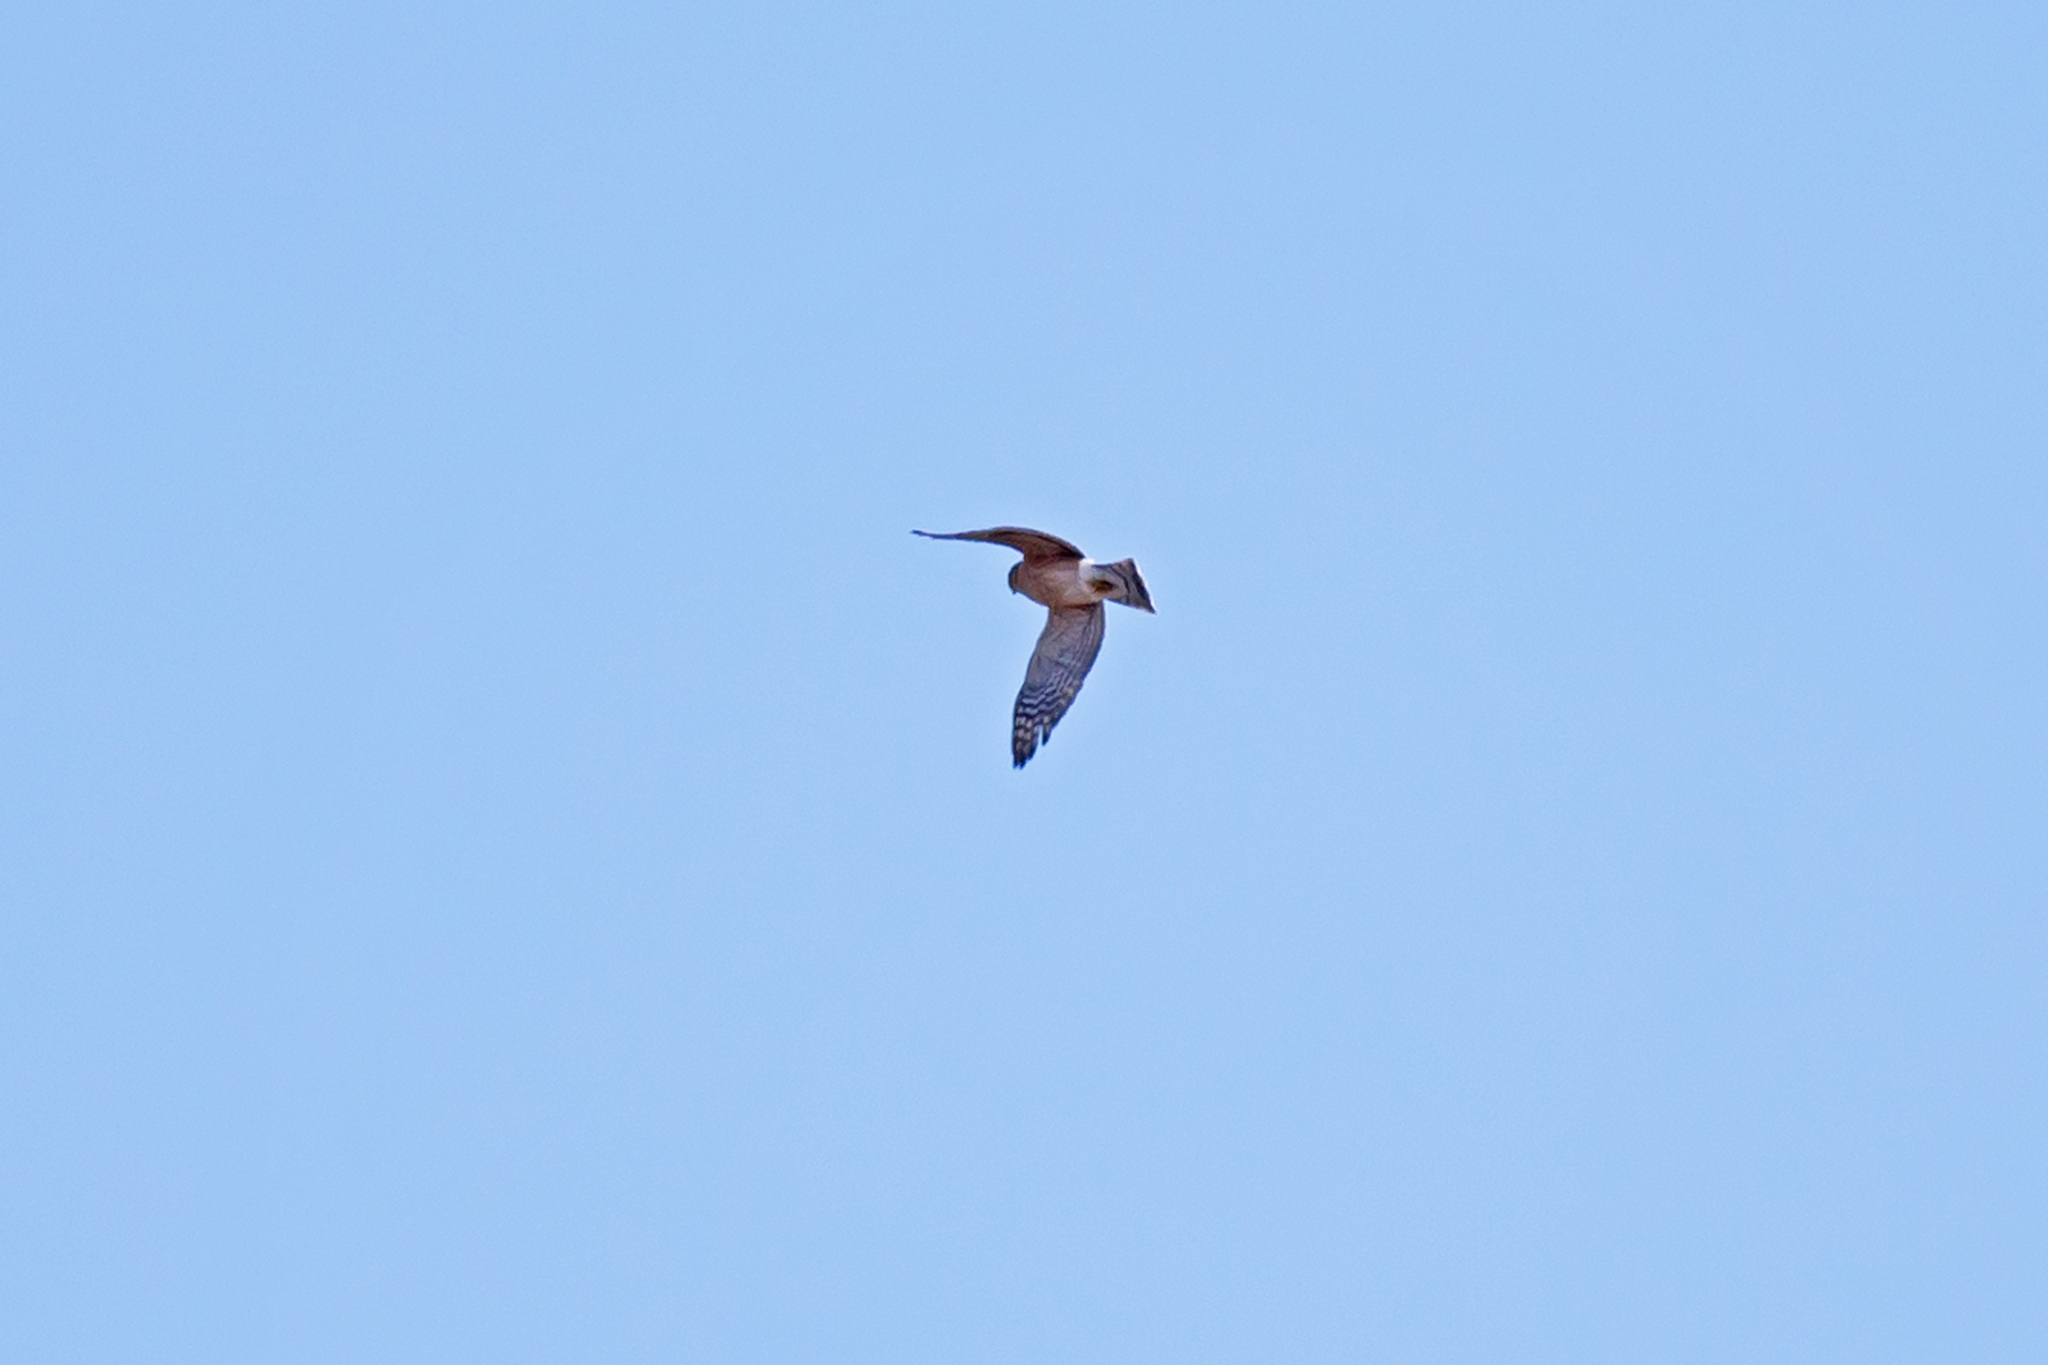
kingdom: Animalia
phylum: Chordata
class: Aves
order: Accipitriformes
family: Accipitridae
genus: Accipiter
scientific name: Accipiter striatus
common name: Sharp-shinned hawk
